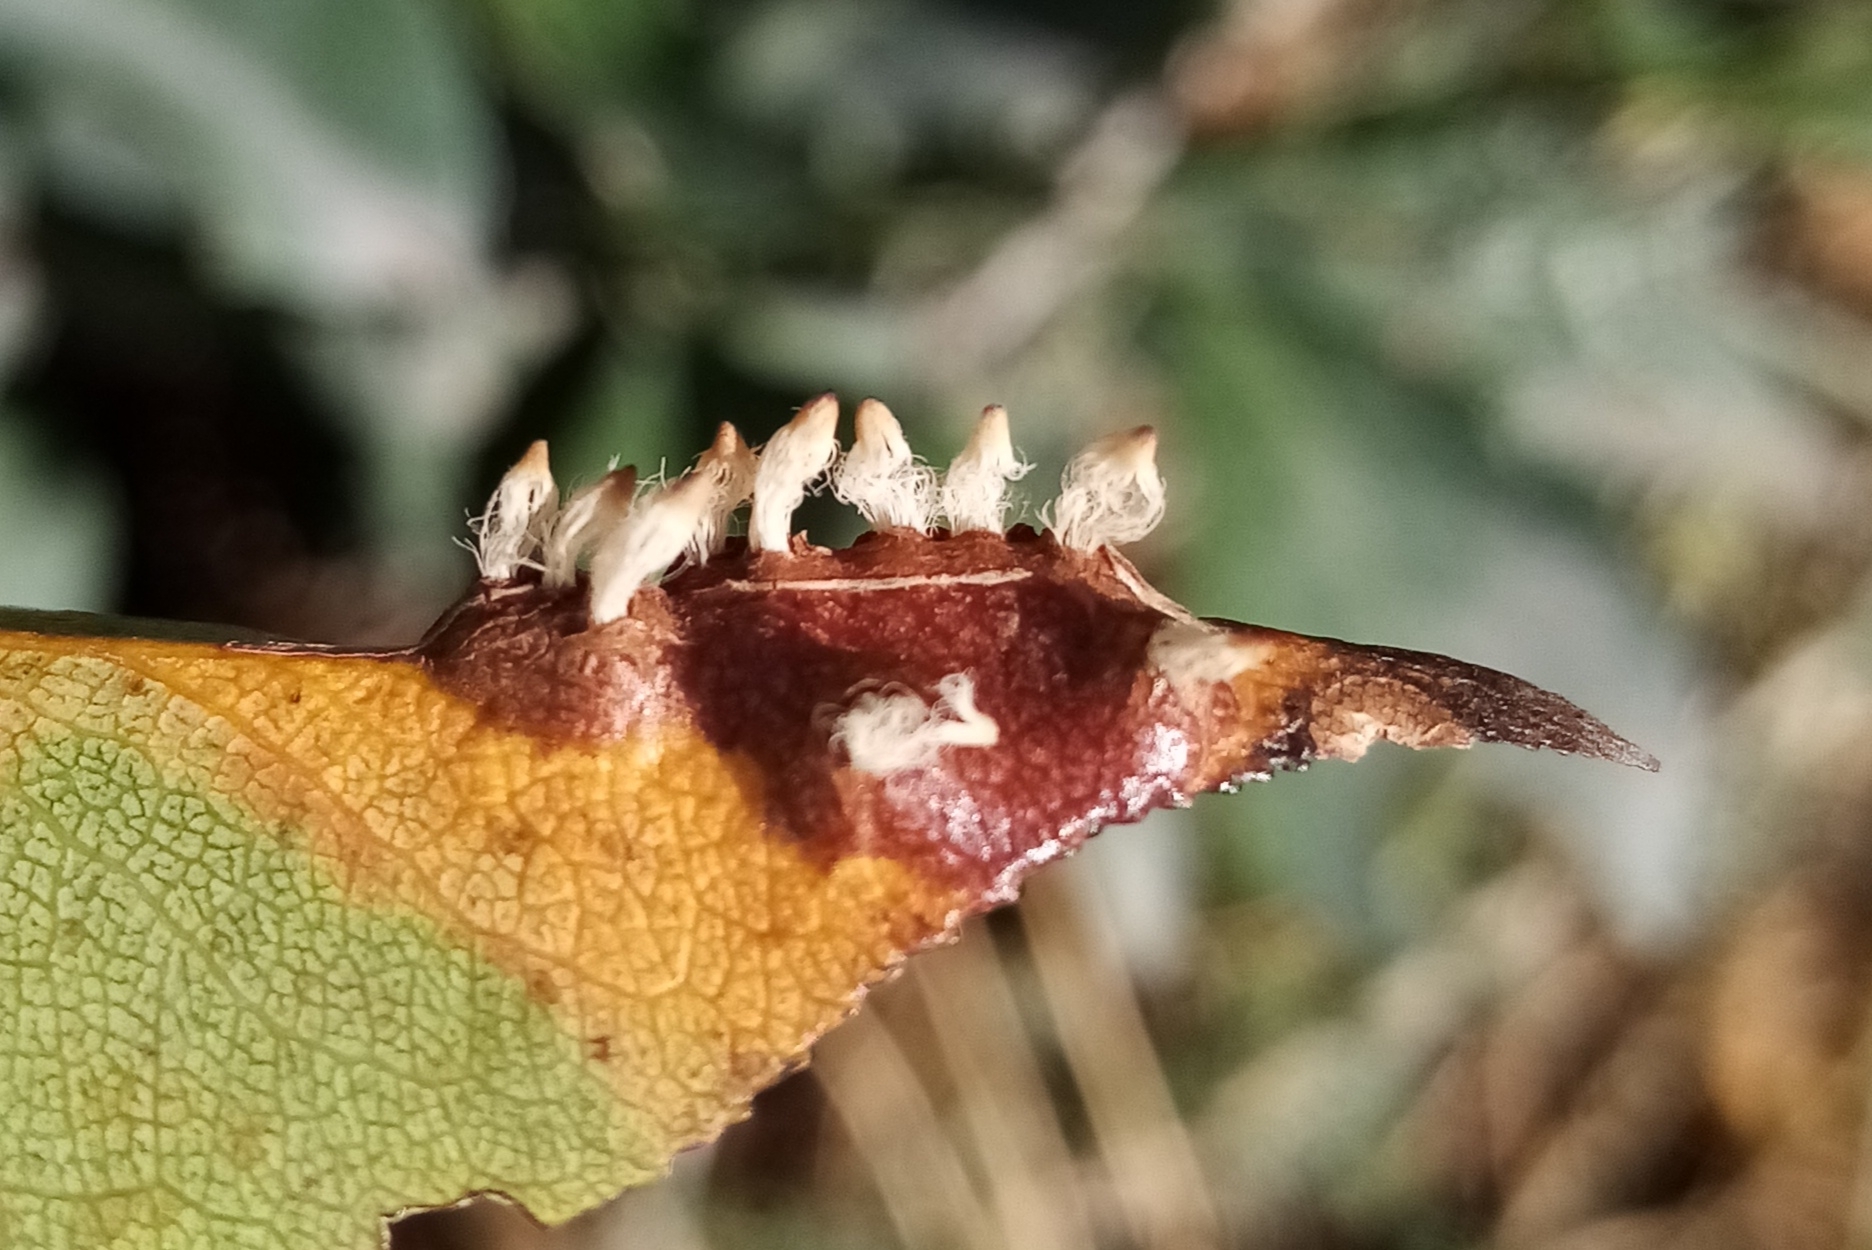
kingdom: Fungi
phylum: Basidiomycota
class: Pucciniomycetes
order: Pucciniales
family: Gymnosporangiaceae
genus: Gymnosporangium
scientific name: Gymnosporangium sabinae
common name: Pear trellis rust fungus
